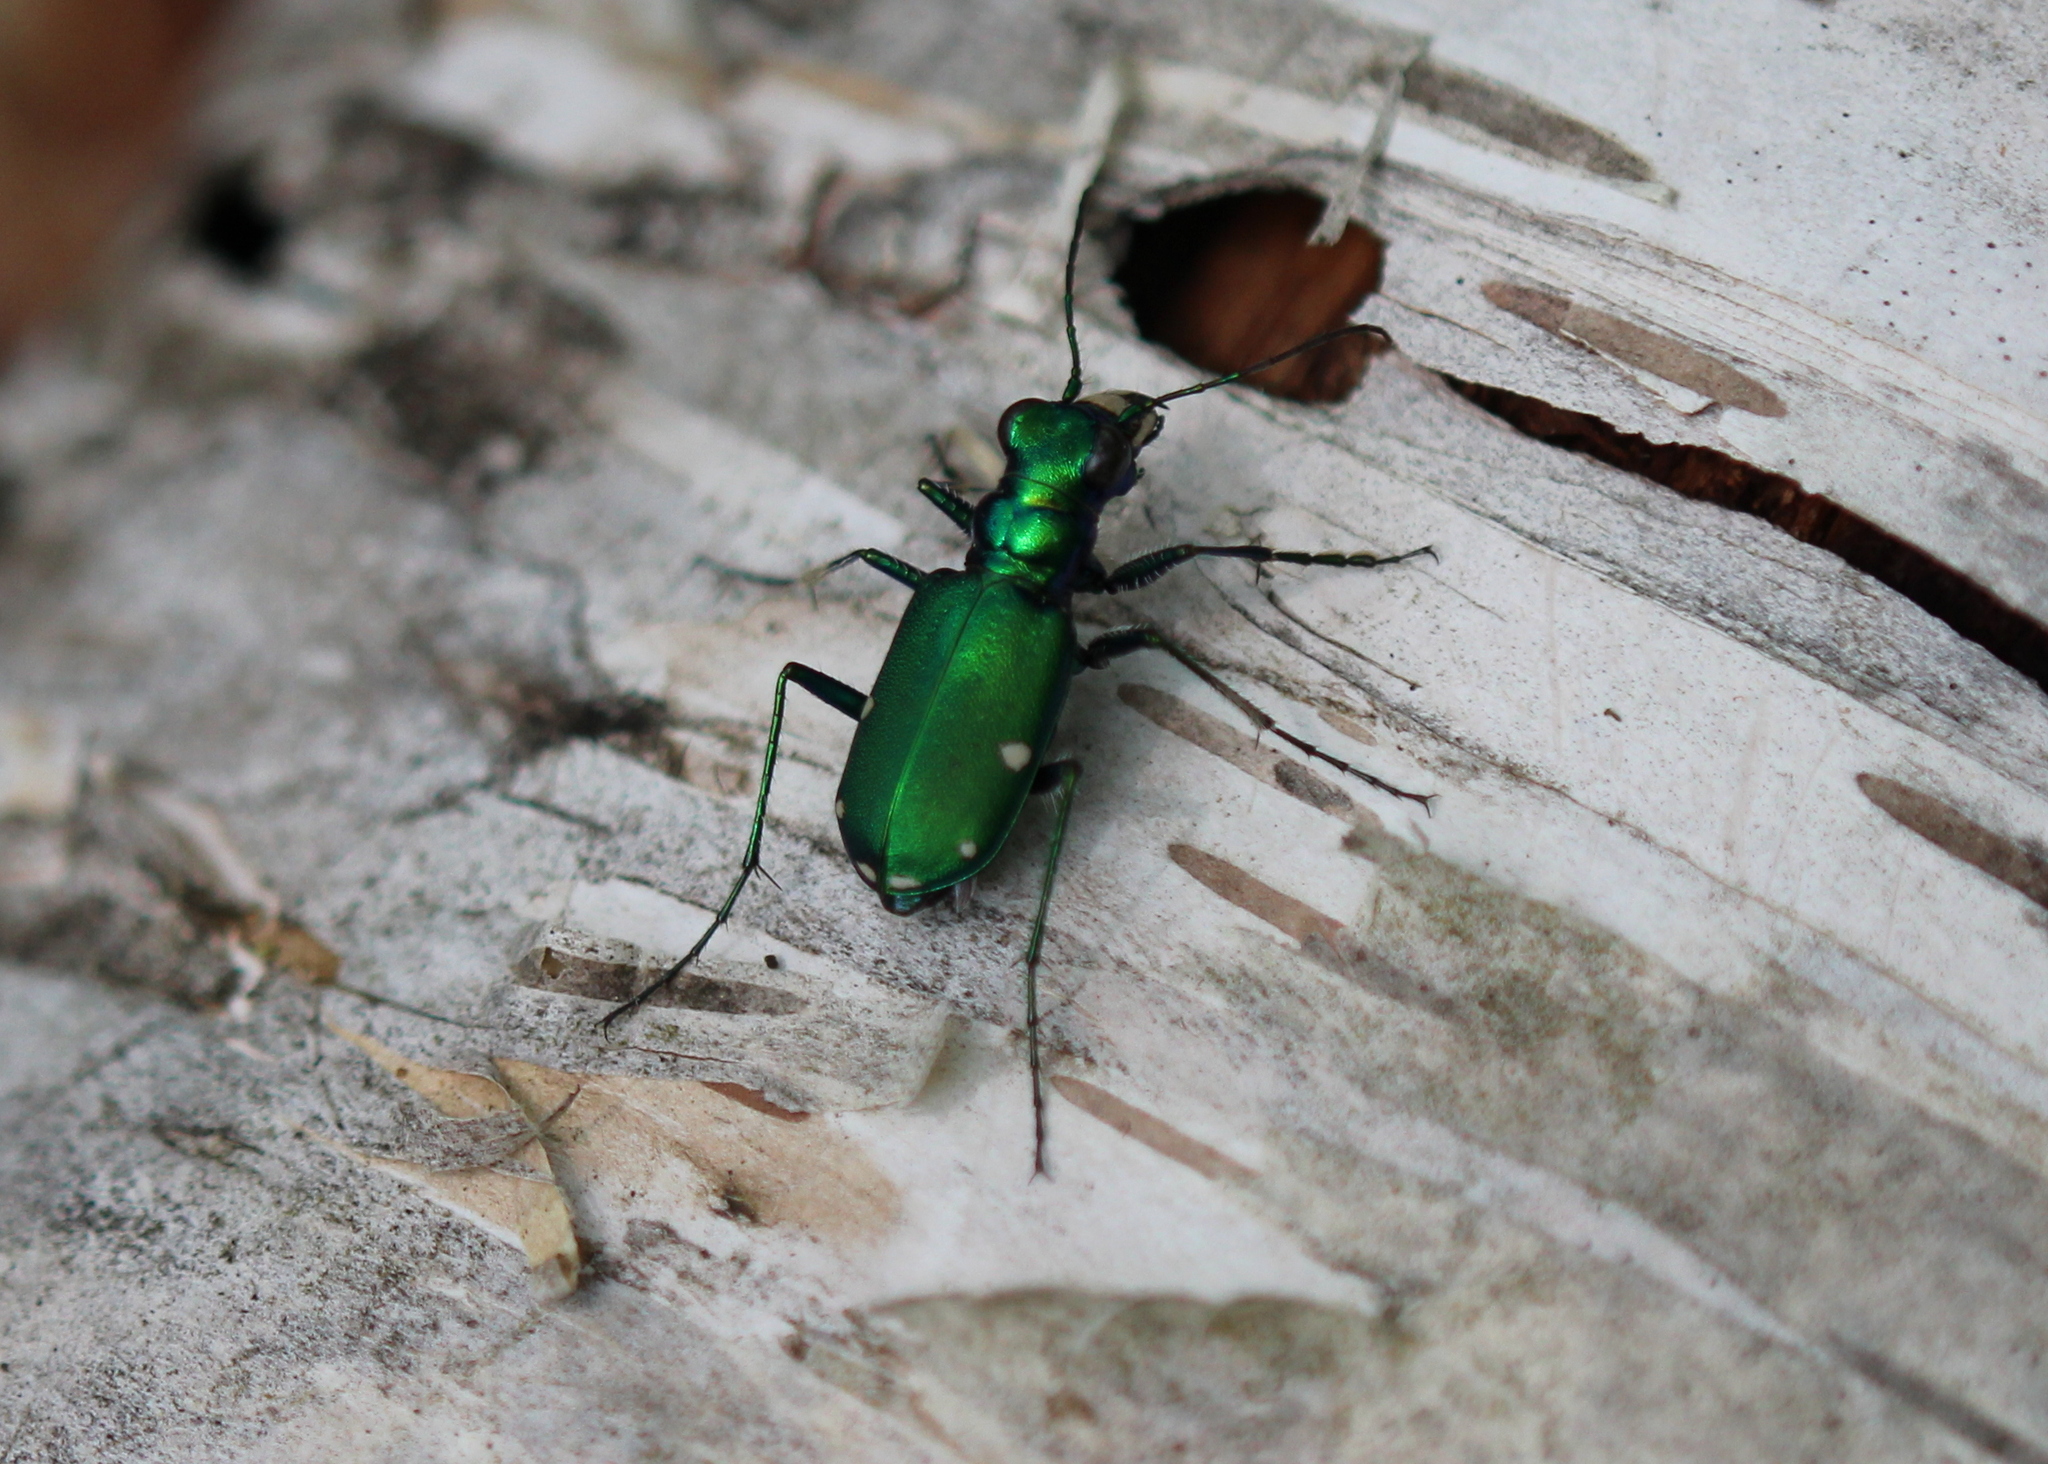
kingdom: Animalia
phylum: Arthropoda
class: Insecta
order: Coleoptera
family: Carabidae
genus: Cicindela
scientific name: Cicindela sexguttata
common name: Six-spotted tiger beetle
